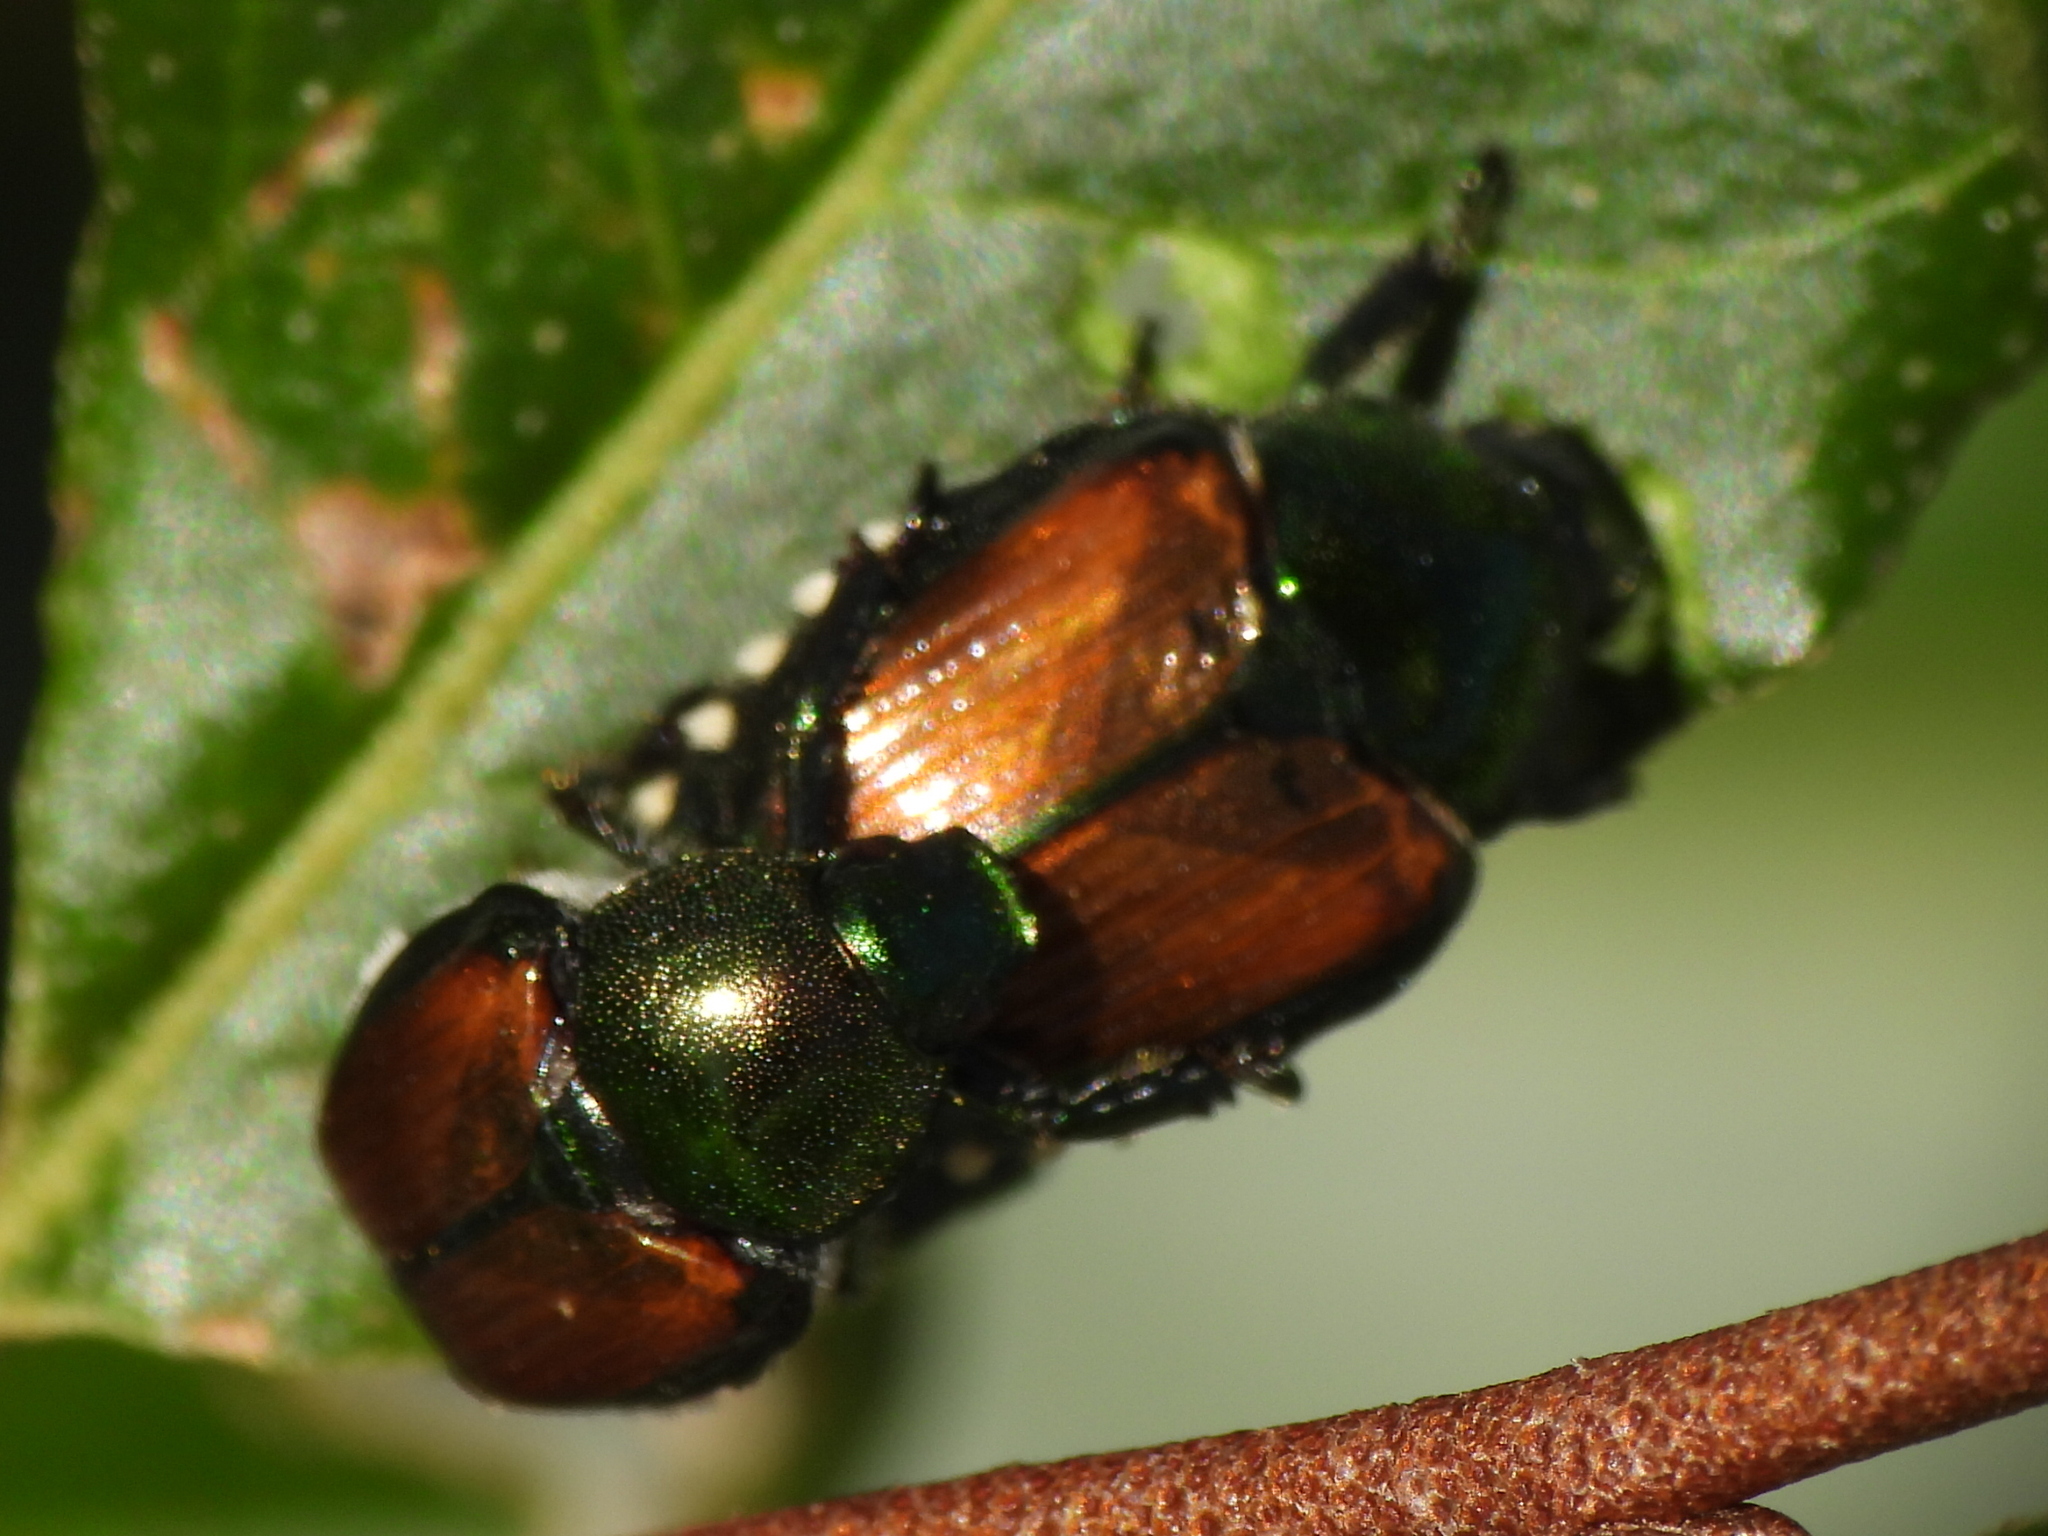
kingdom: Animalia
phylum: Arthropoda
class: Insecta
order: Coleoptera
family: Scarabaeidae
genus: Popillia
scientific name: Popillia japonica
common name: Japanese beetle
